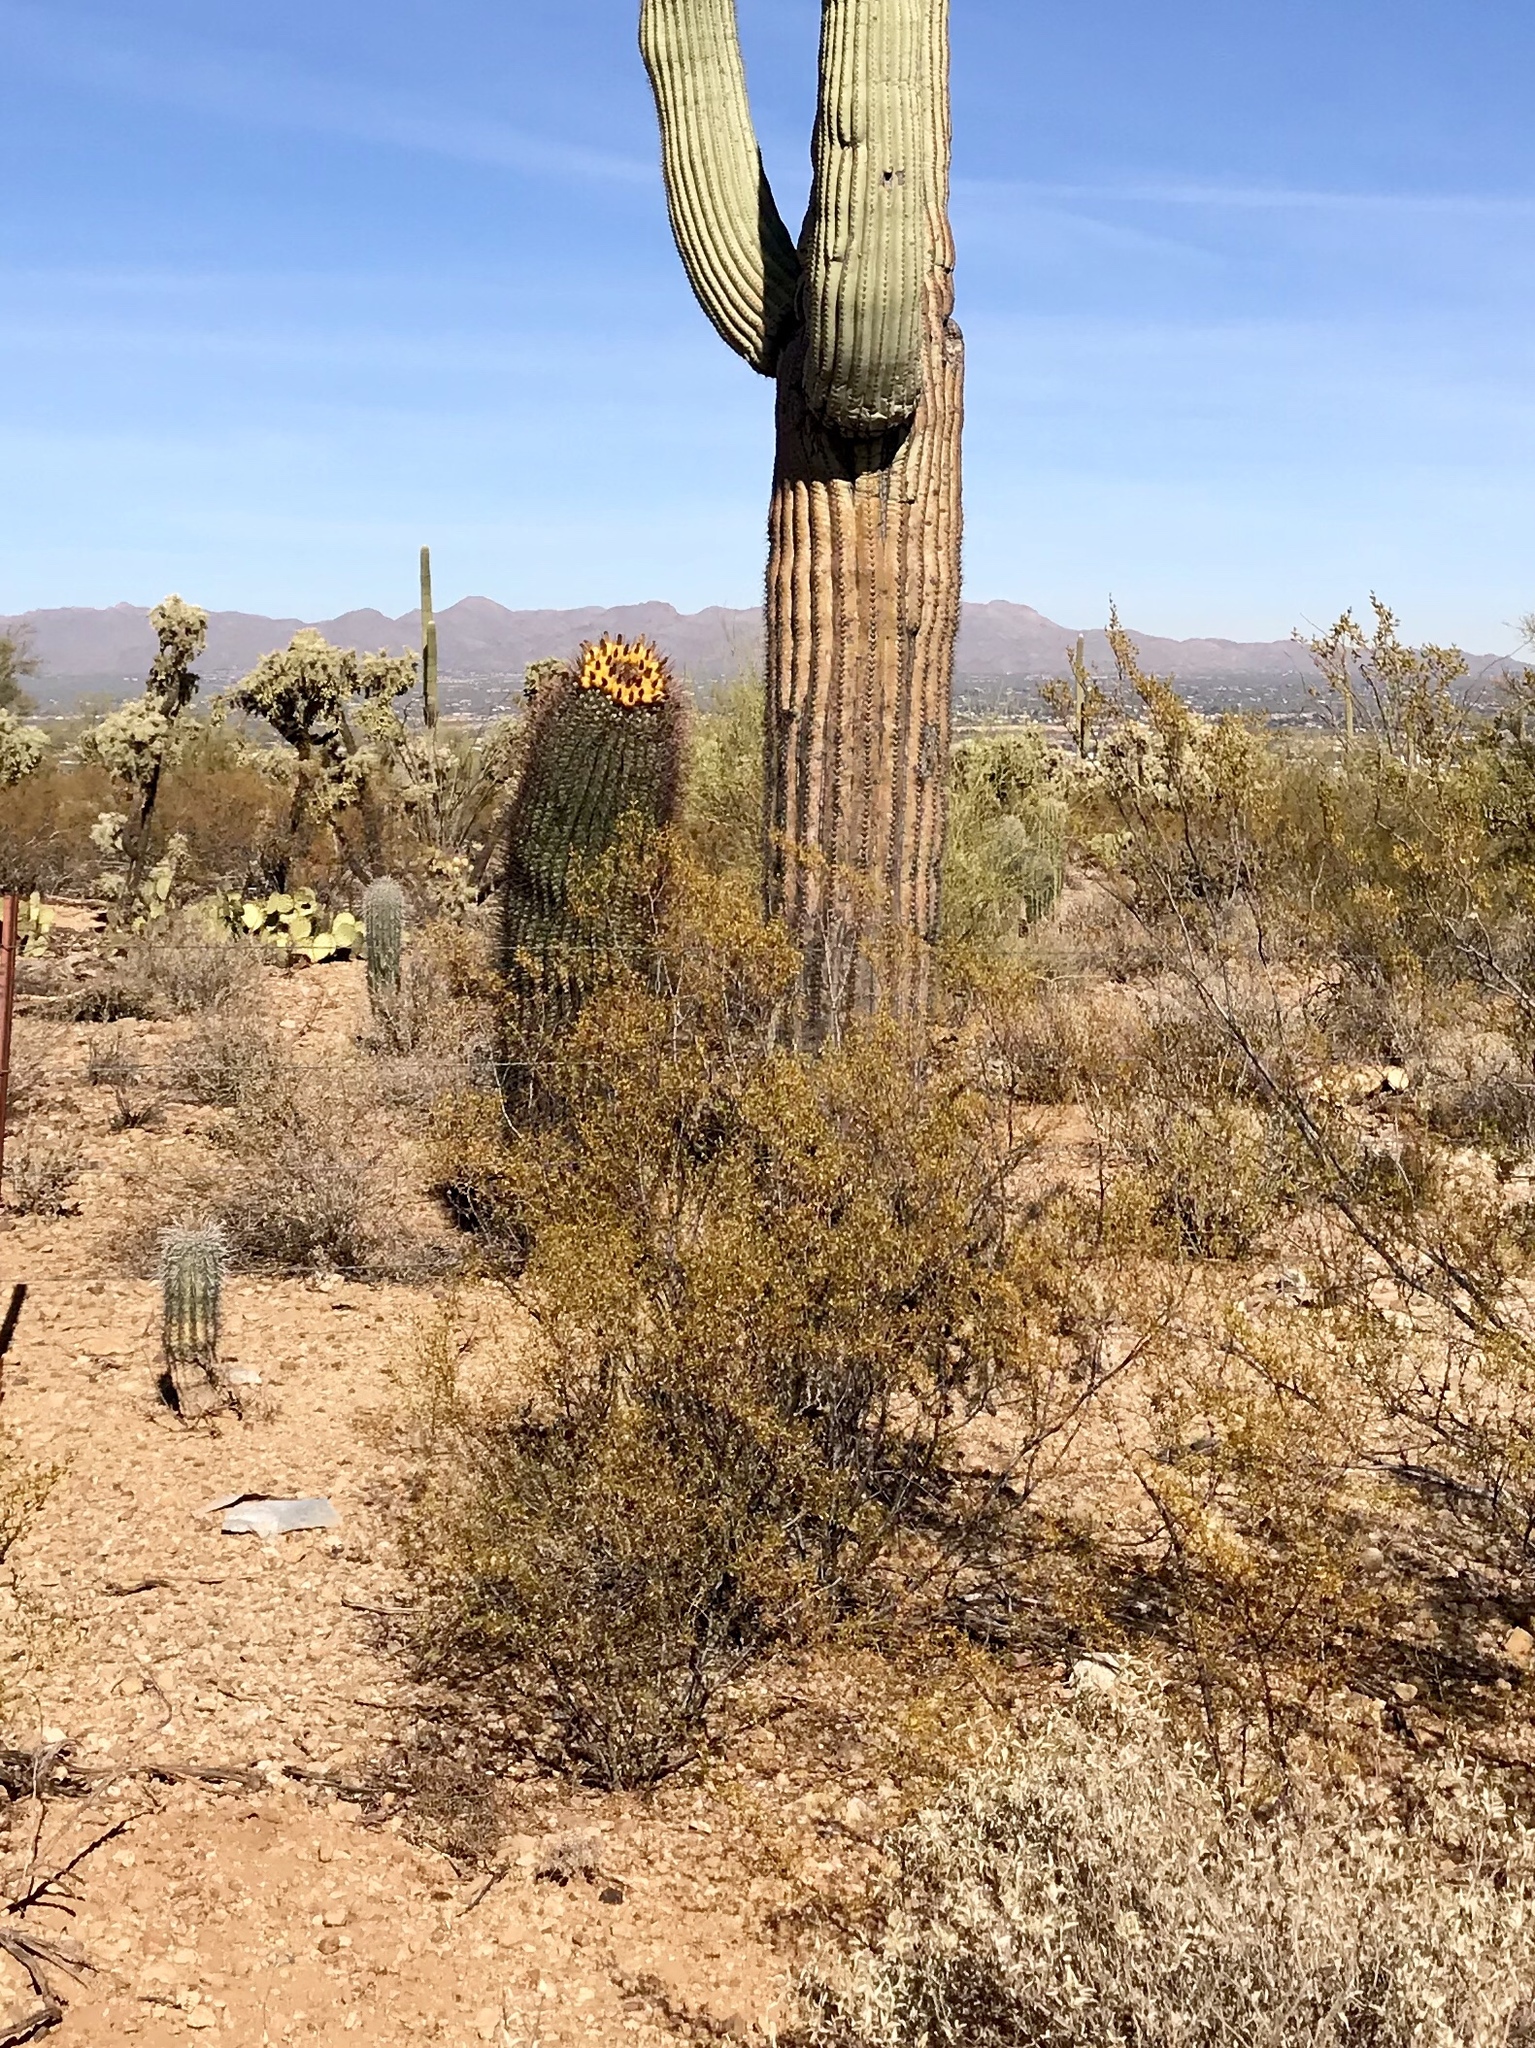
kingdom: Plantae
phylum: Tracheophyta
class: Magnoliopsida
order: Zygophyllales
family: Zygophyllaceae
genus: Larrea
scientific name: Larrea tridentata
